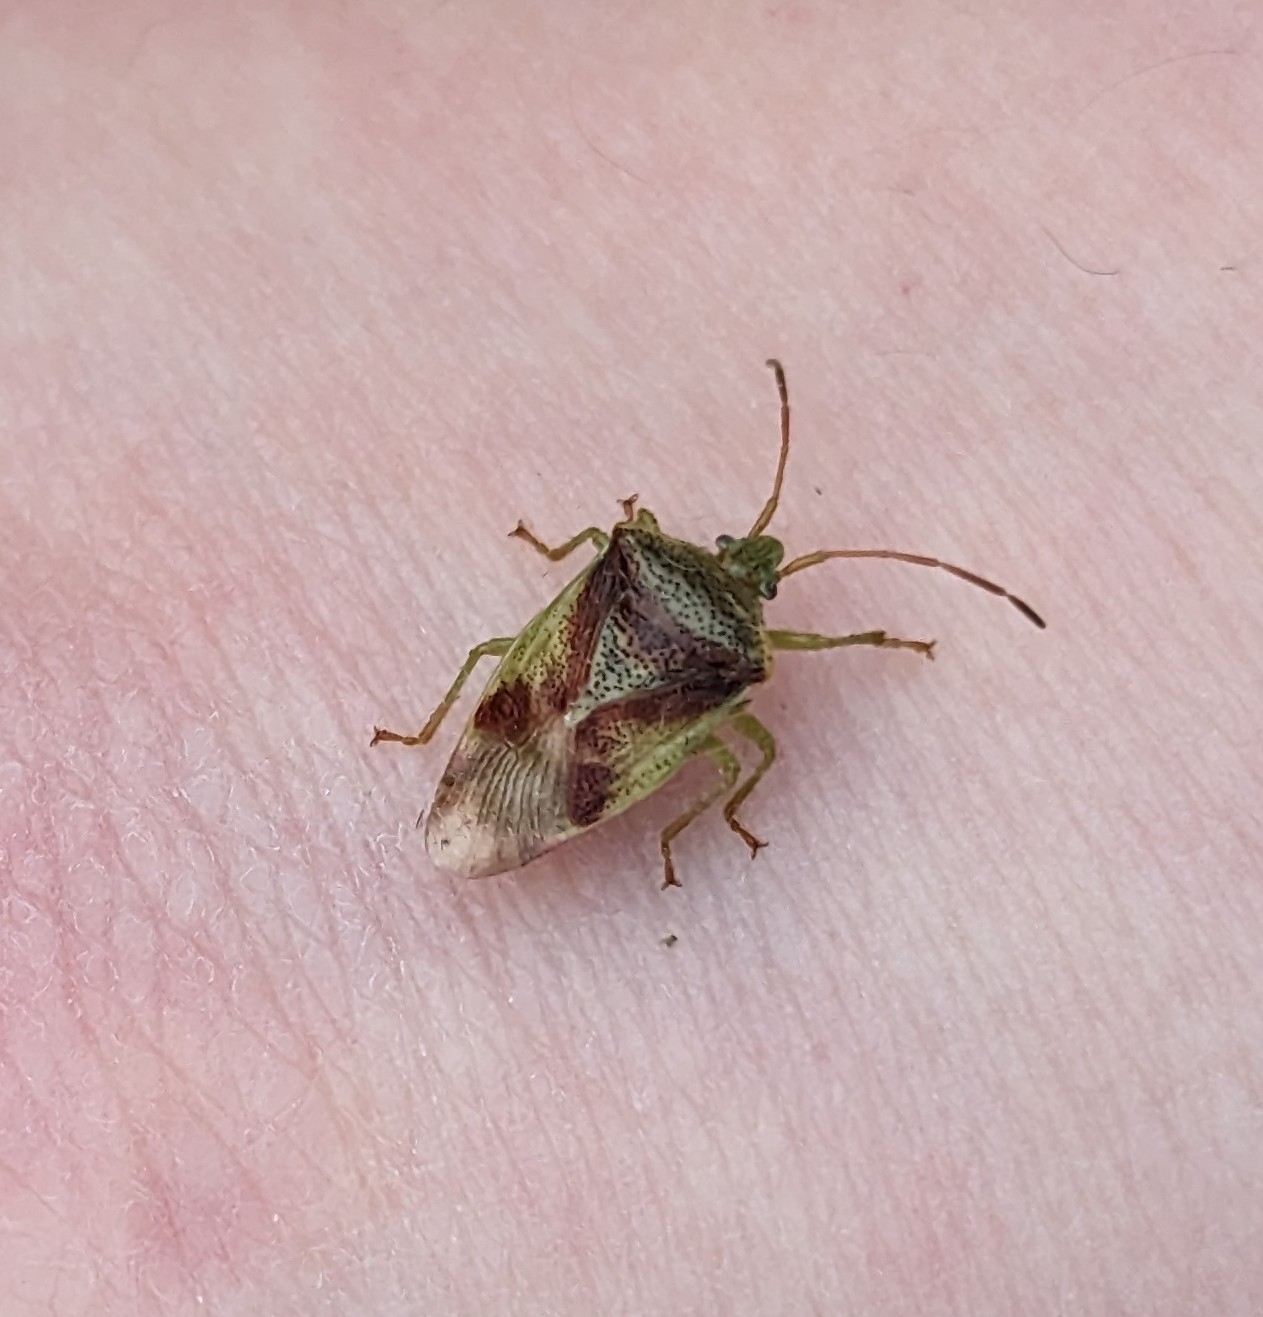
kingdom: Animalia
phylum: Arthropoda
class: Insecta
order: Hemiptera
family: Acanthosomatidae
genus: Elasmostethus
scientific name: Elasmostethus cruciatus
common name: Red-cross shield bug
